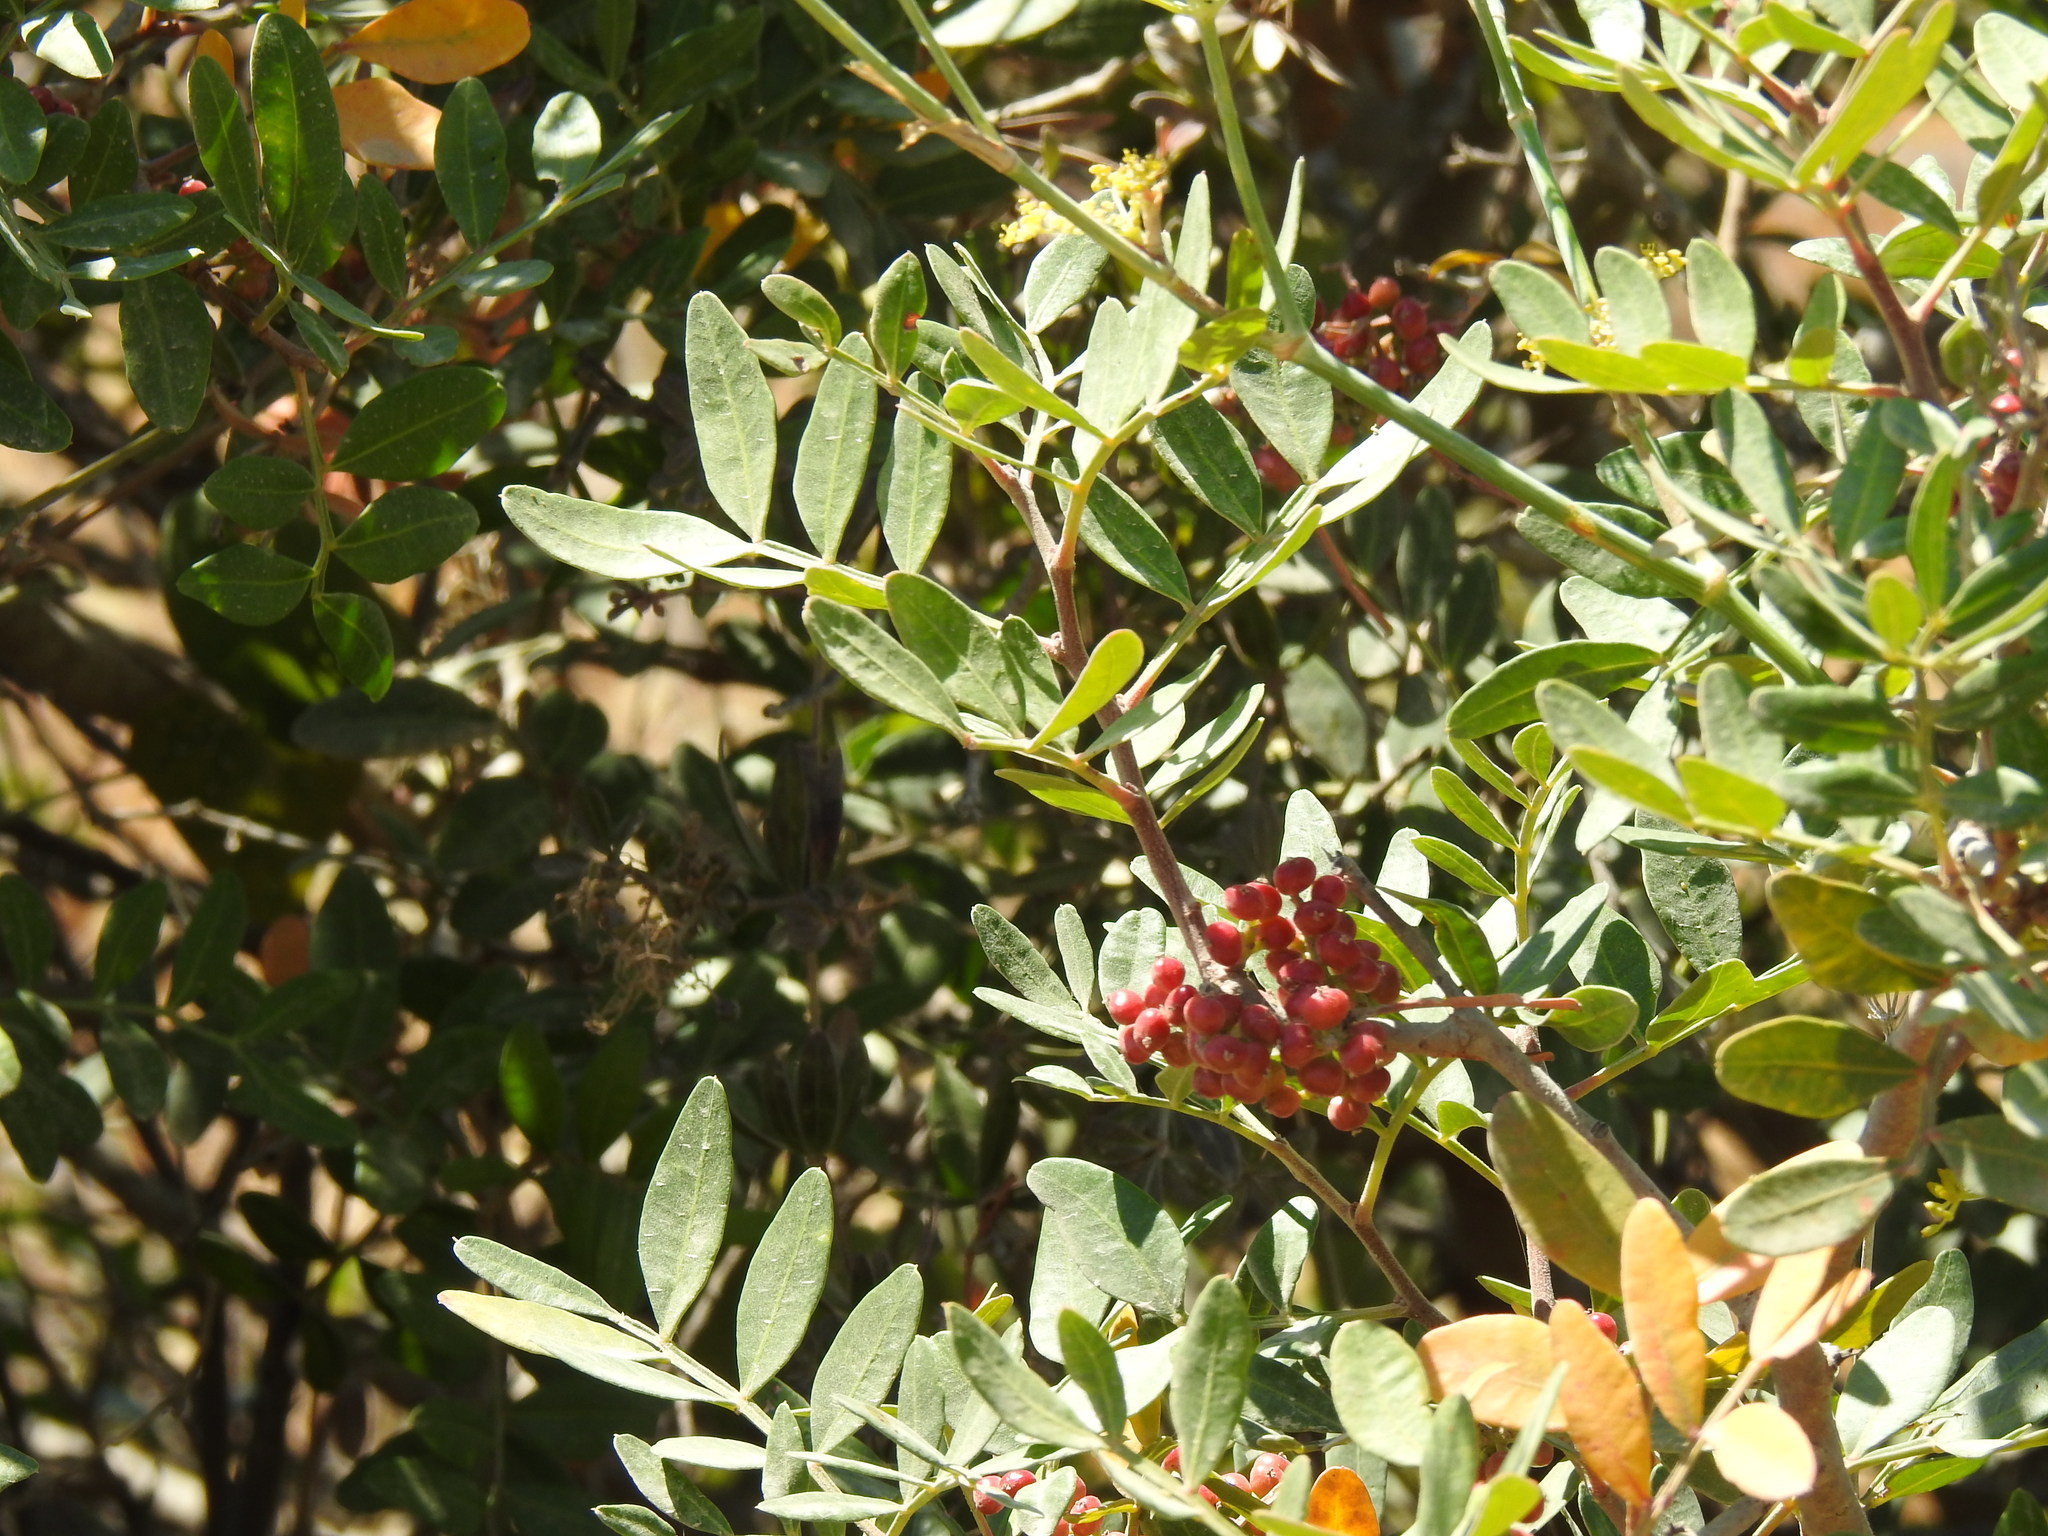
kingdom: Plantae
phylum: Tracheophyta
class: Magnoliopsida
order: Sapindales
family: Anacardiaceae
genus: Pistacia
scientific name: Pistacia lentiscus
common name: Lentisk
